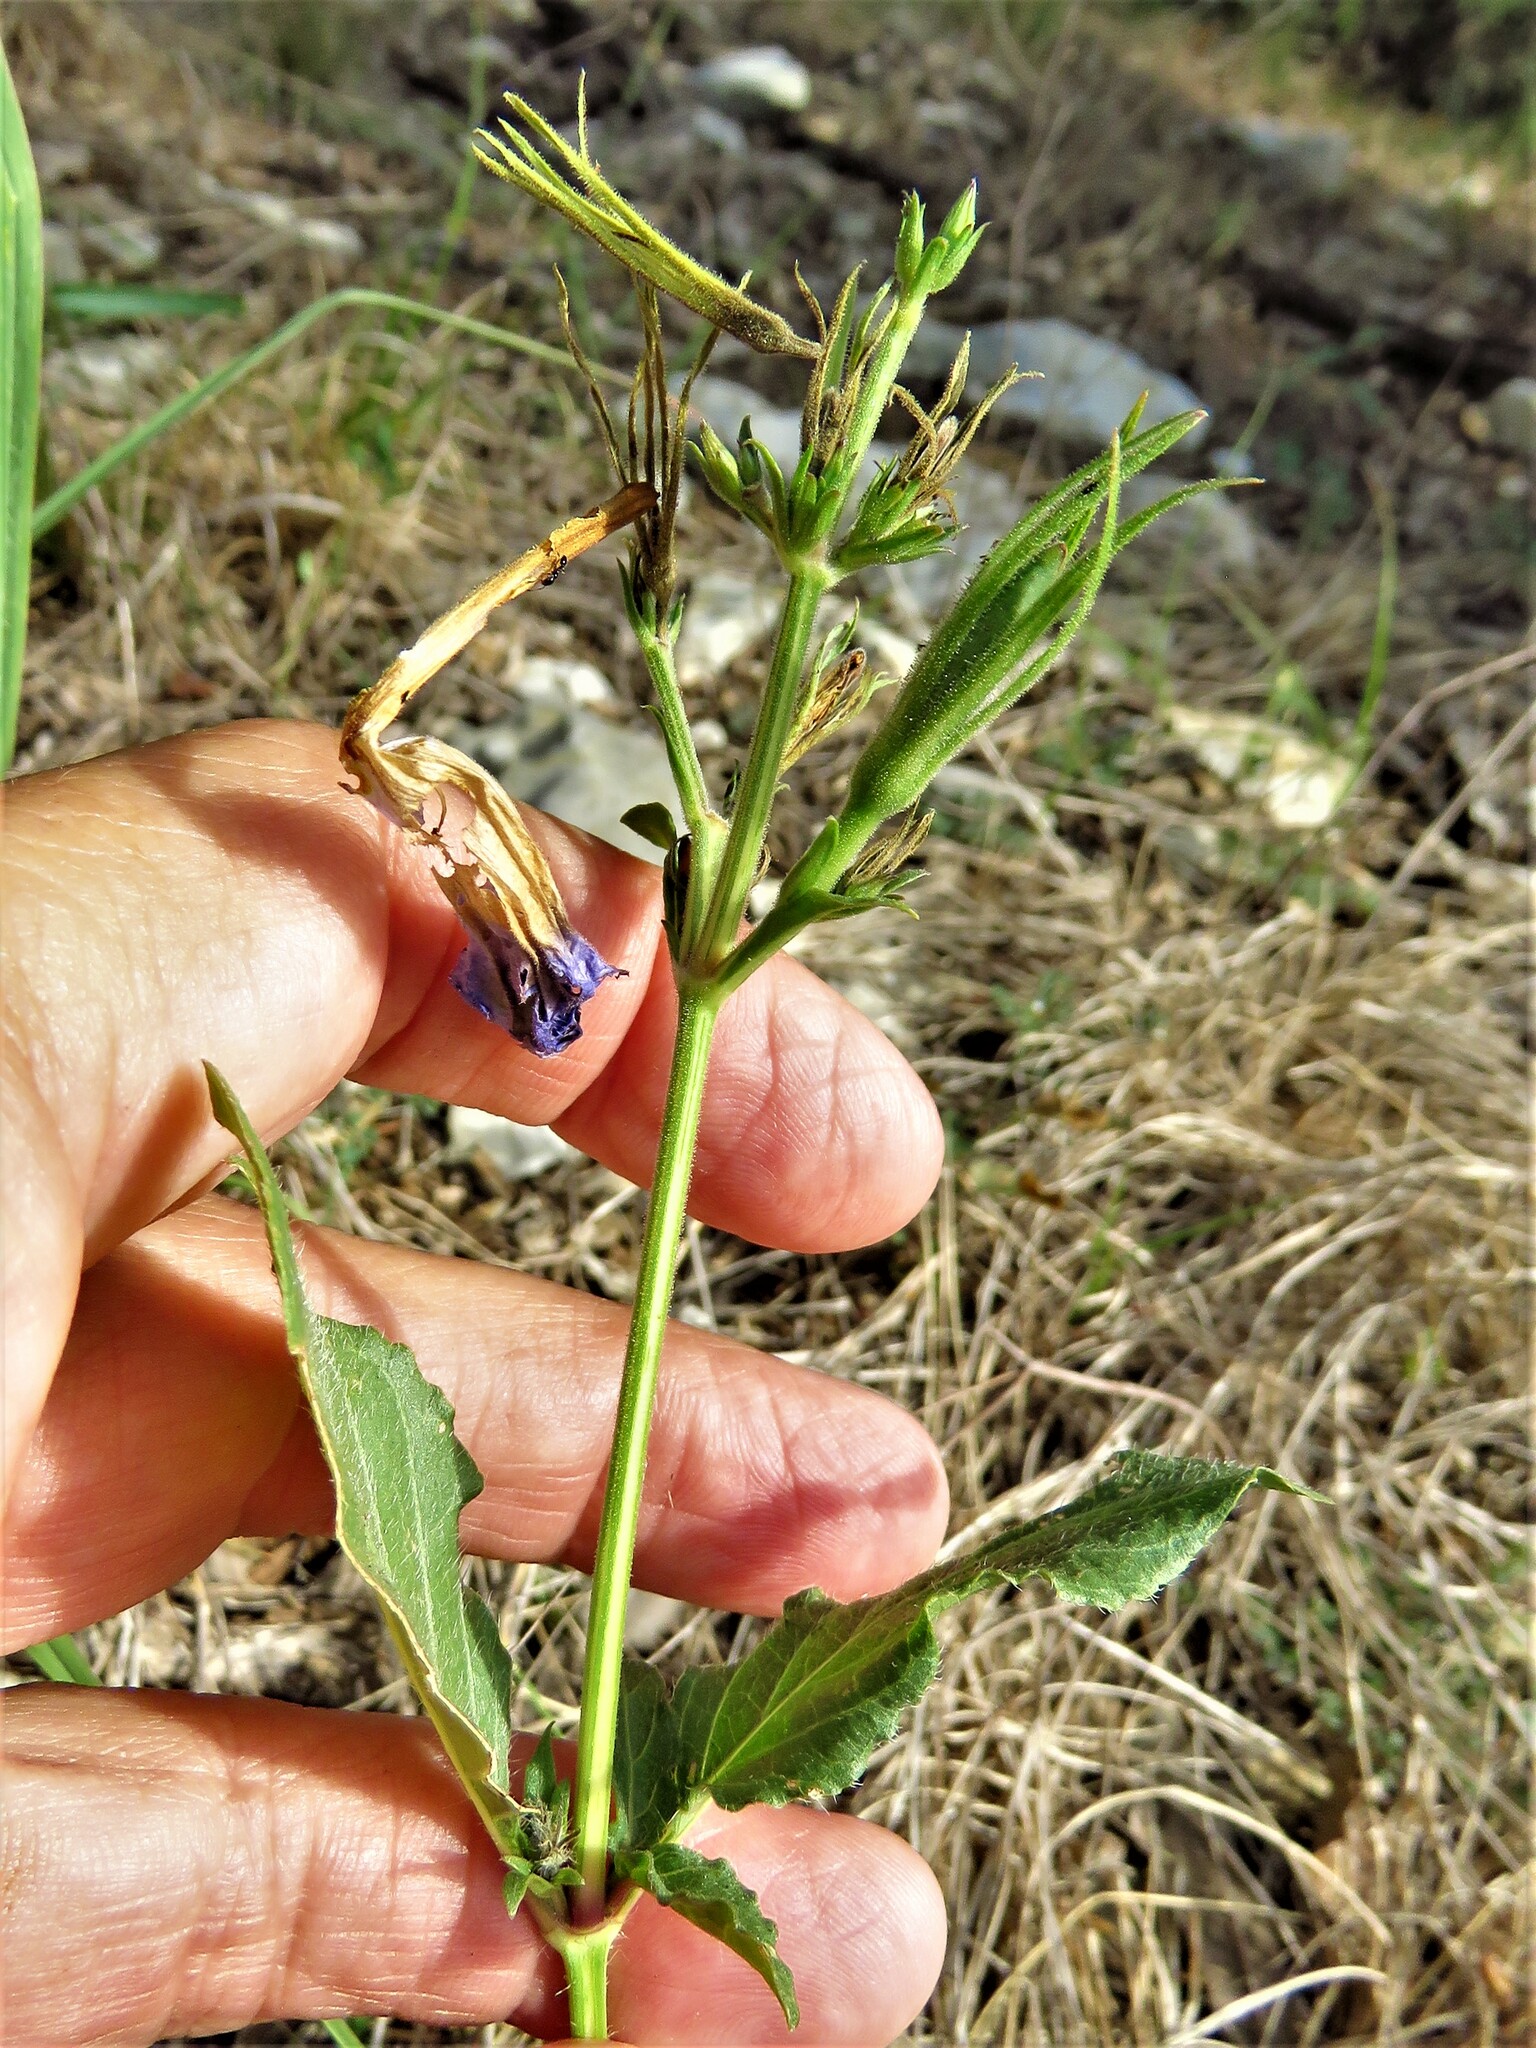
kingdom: Plantae
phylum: Tracheophyta
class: Magnoliopsida
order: Lamiales
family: Acanthaceae
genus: Ruellia
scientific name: Ruellia ciliatiflora
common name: Hairyflower wild petunia
